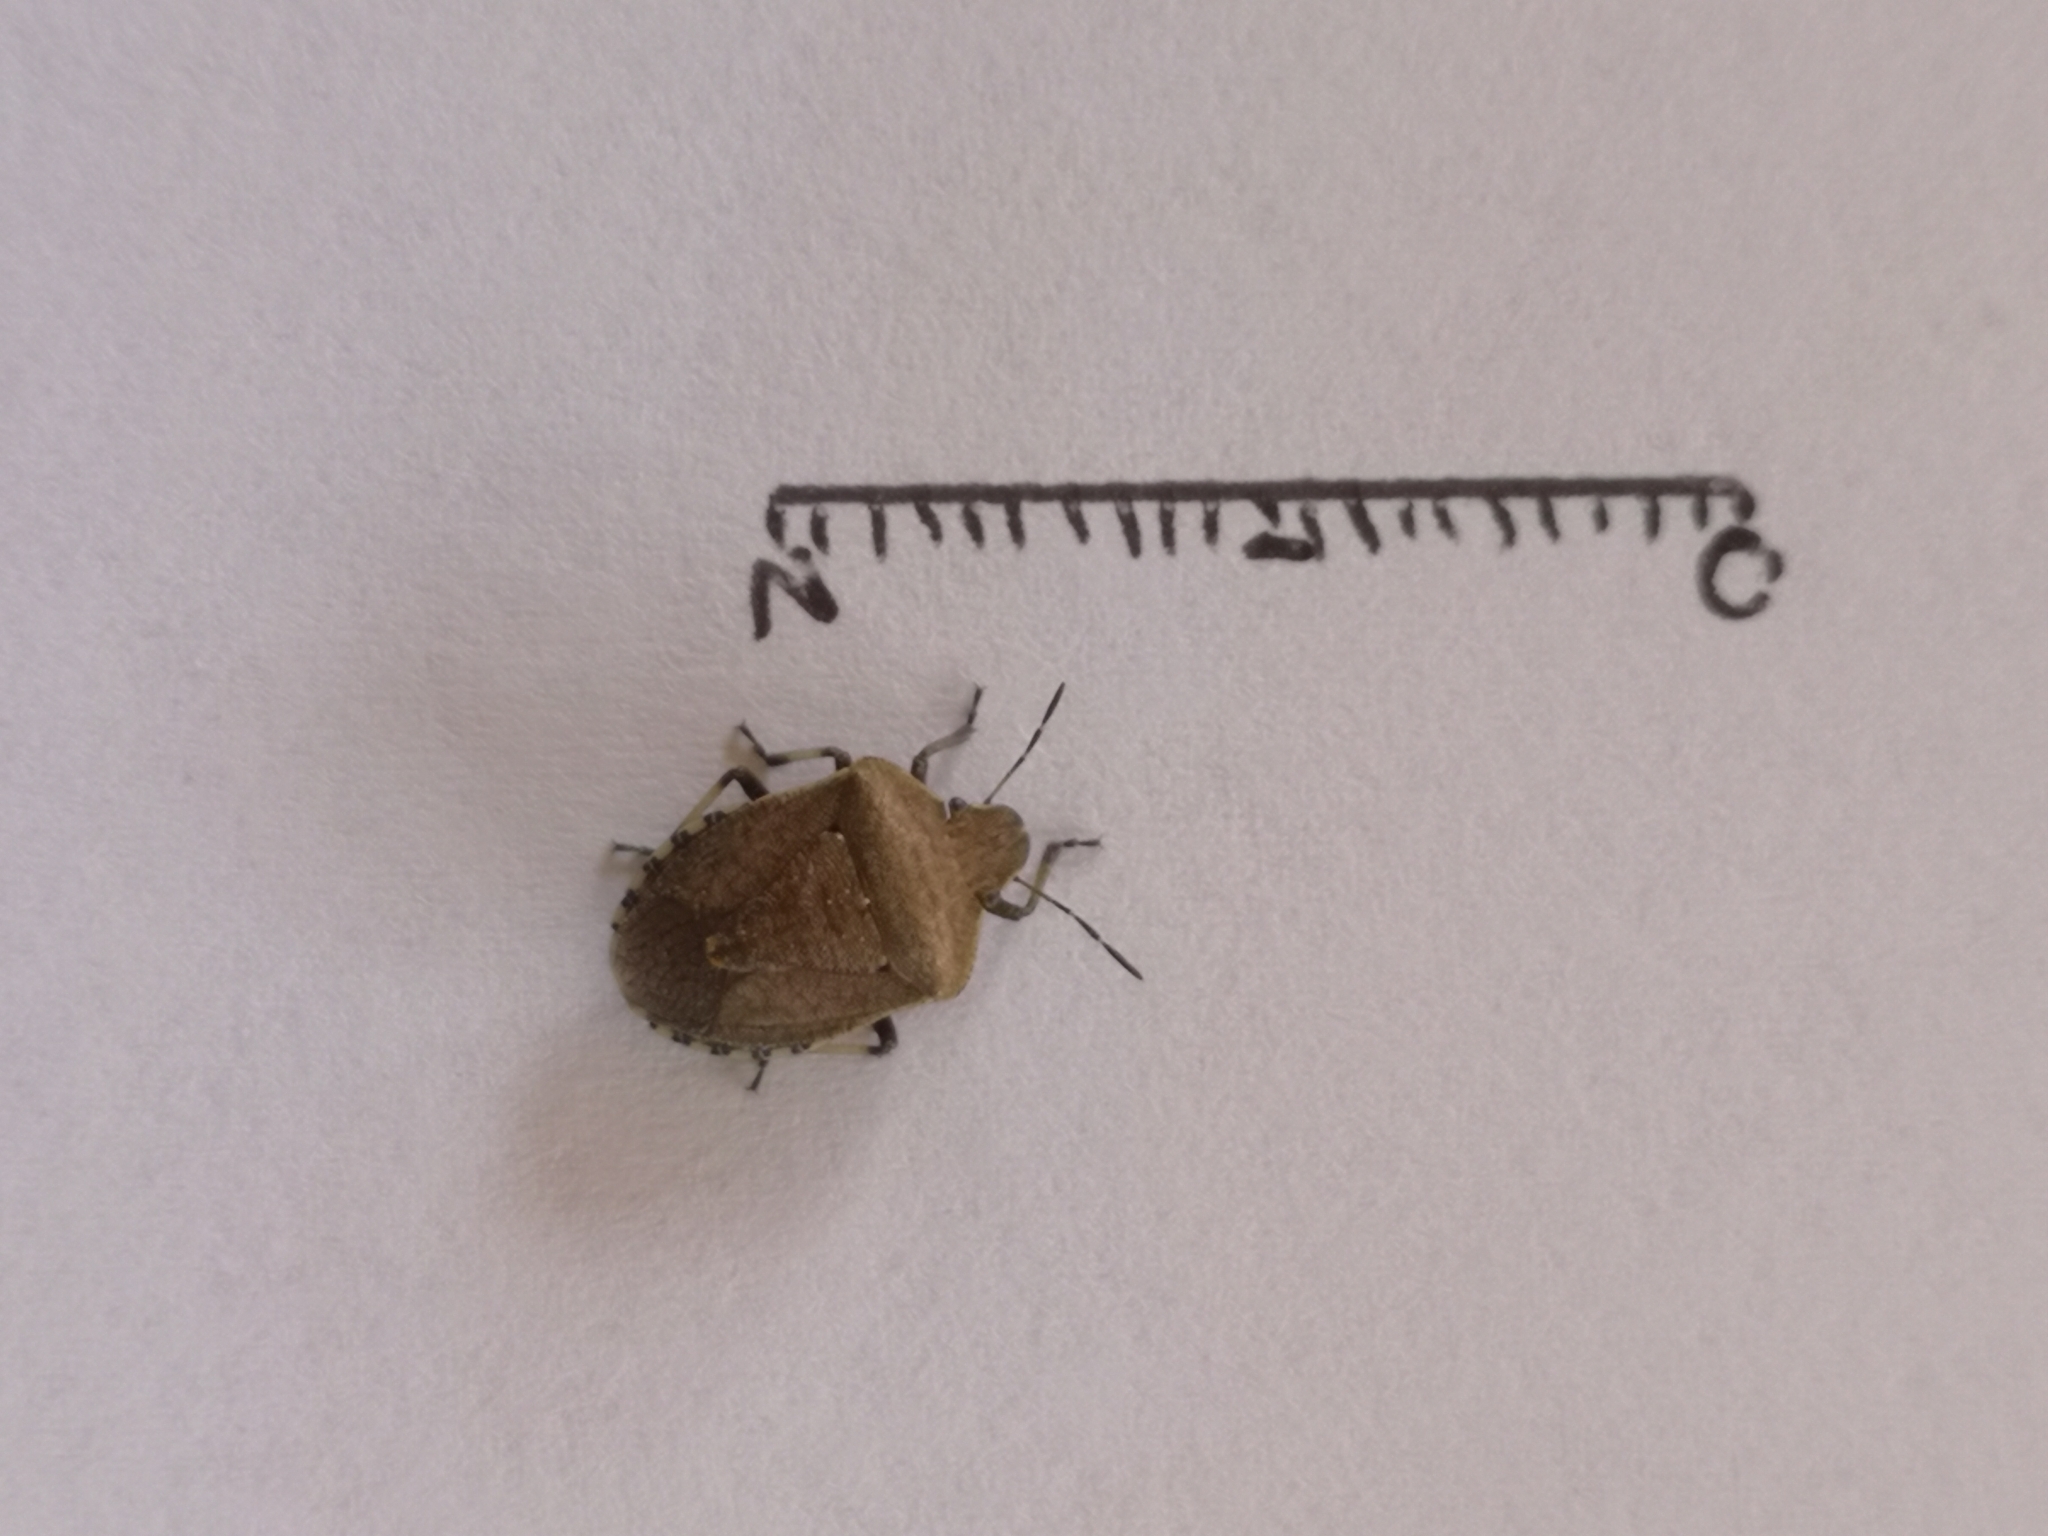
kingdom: Animalia
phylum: Arthropoda
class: Insecta
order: Hemiptera
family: Pentatomidae
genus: Dictyotus
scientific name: Dictyotus caenosus
